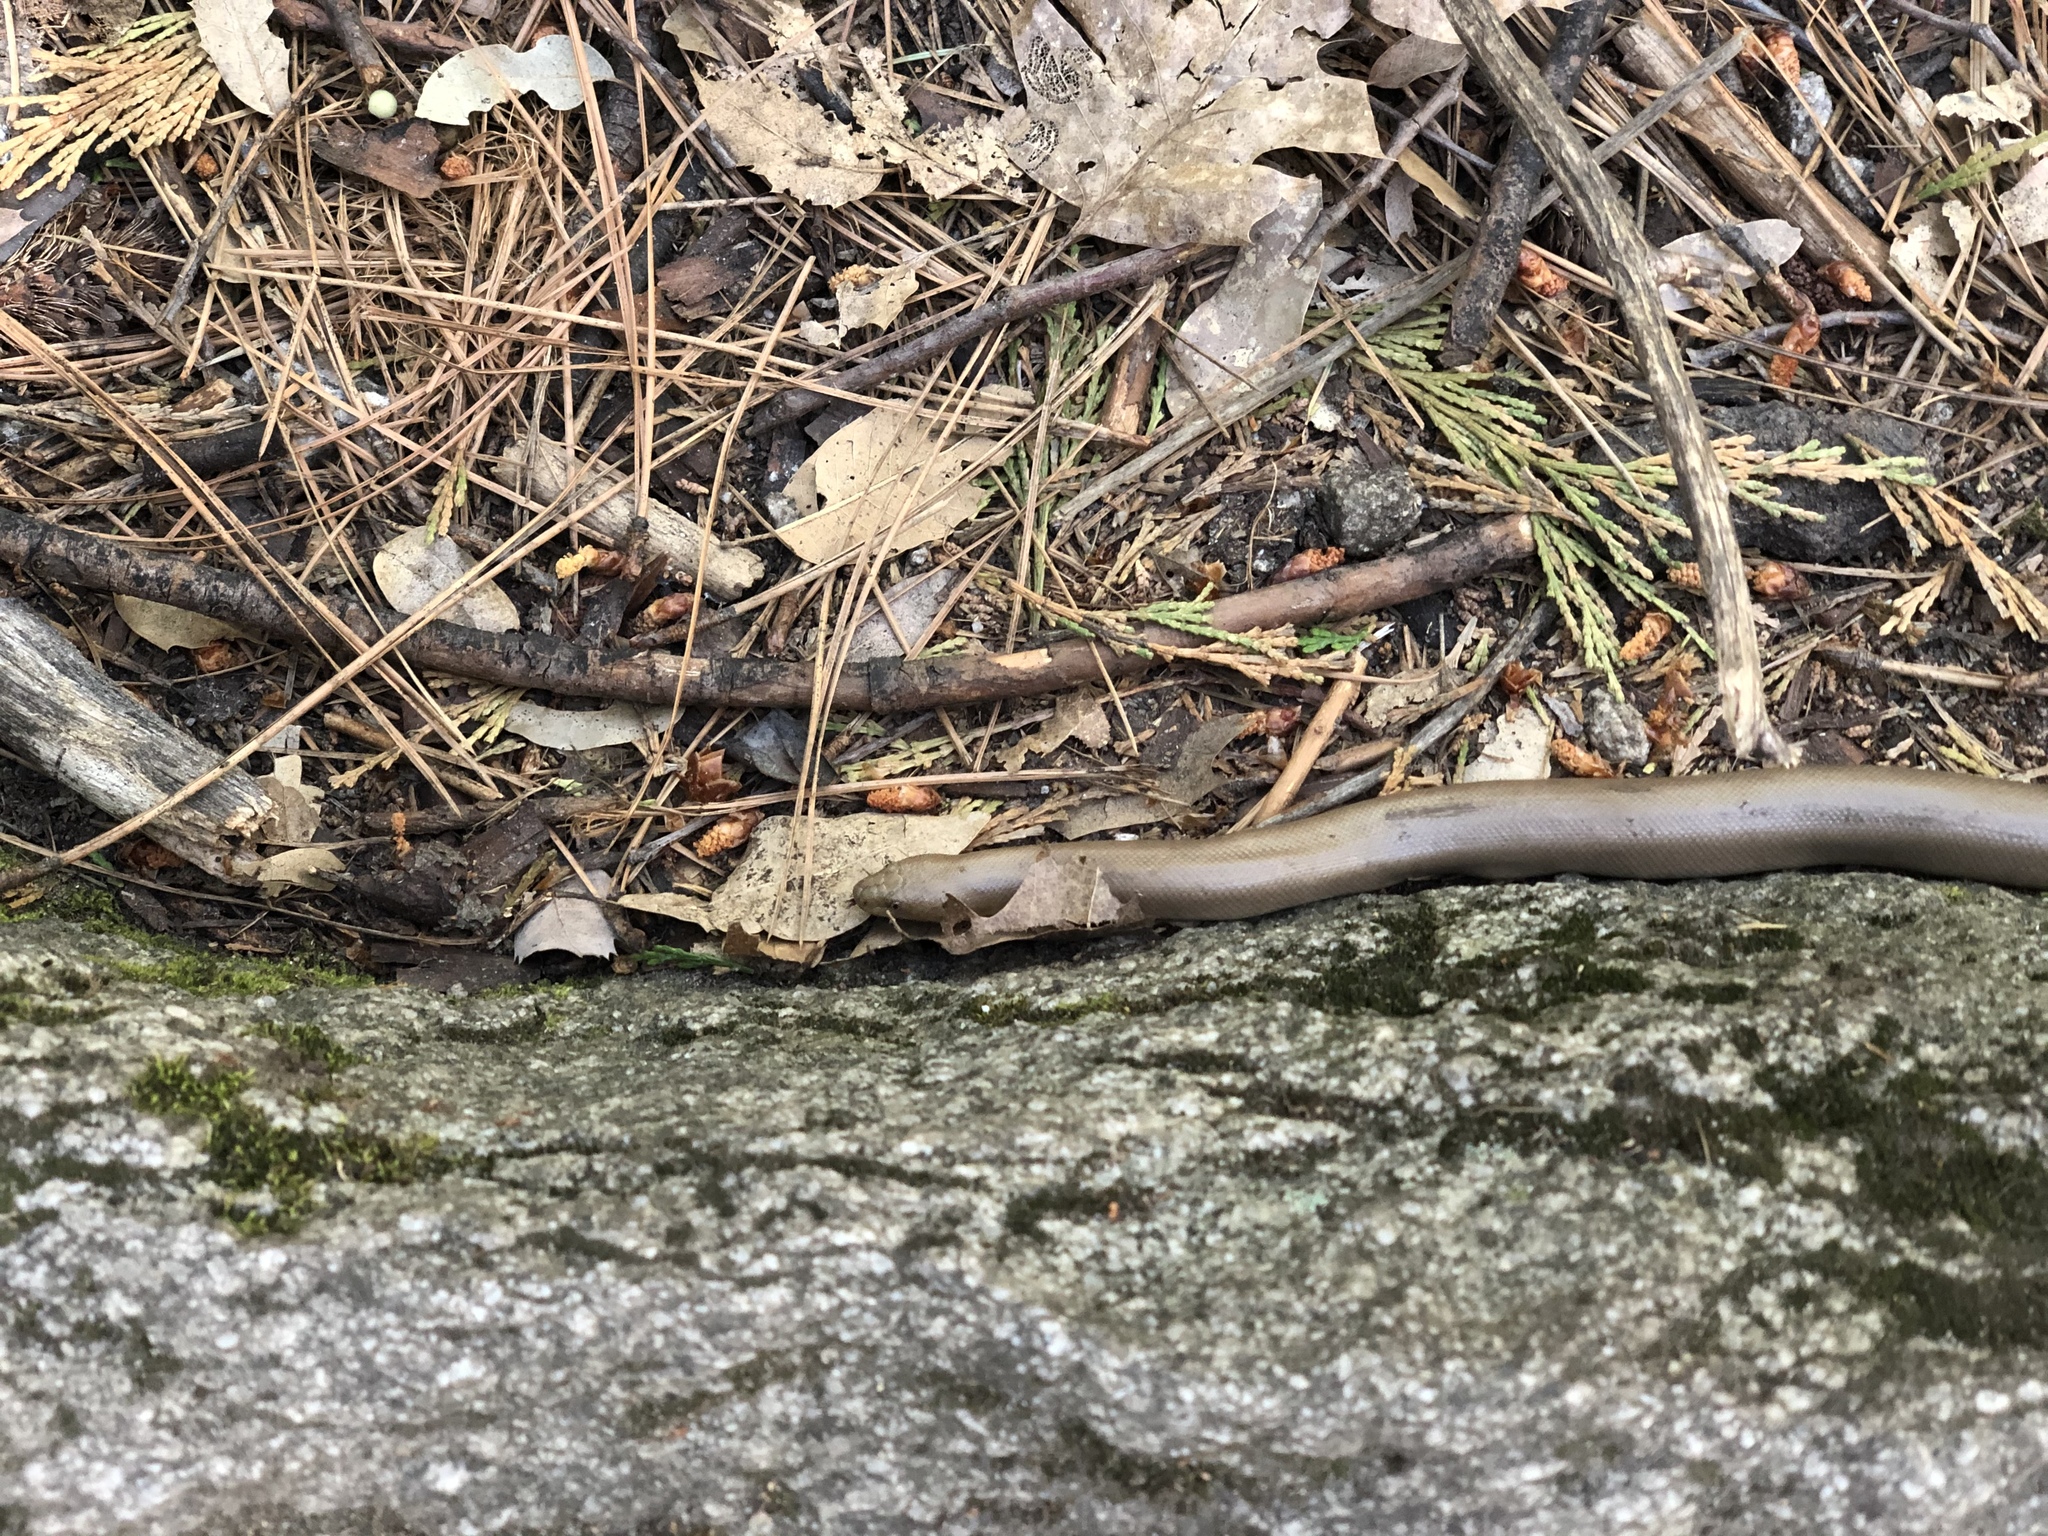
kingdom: Animalia
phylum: Chordata
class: Squamata
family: Boidae
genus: Charina
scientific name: Charina bottae
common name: Northern rubber boa
